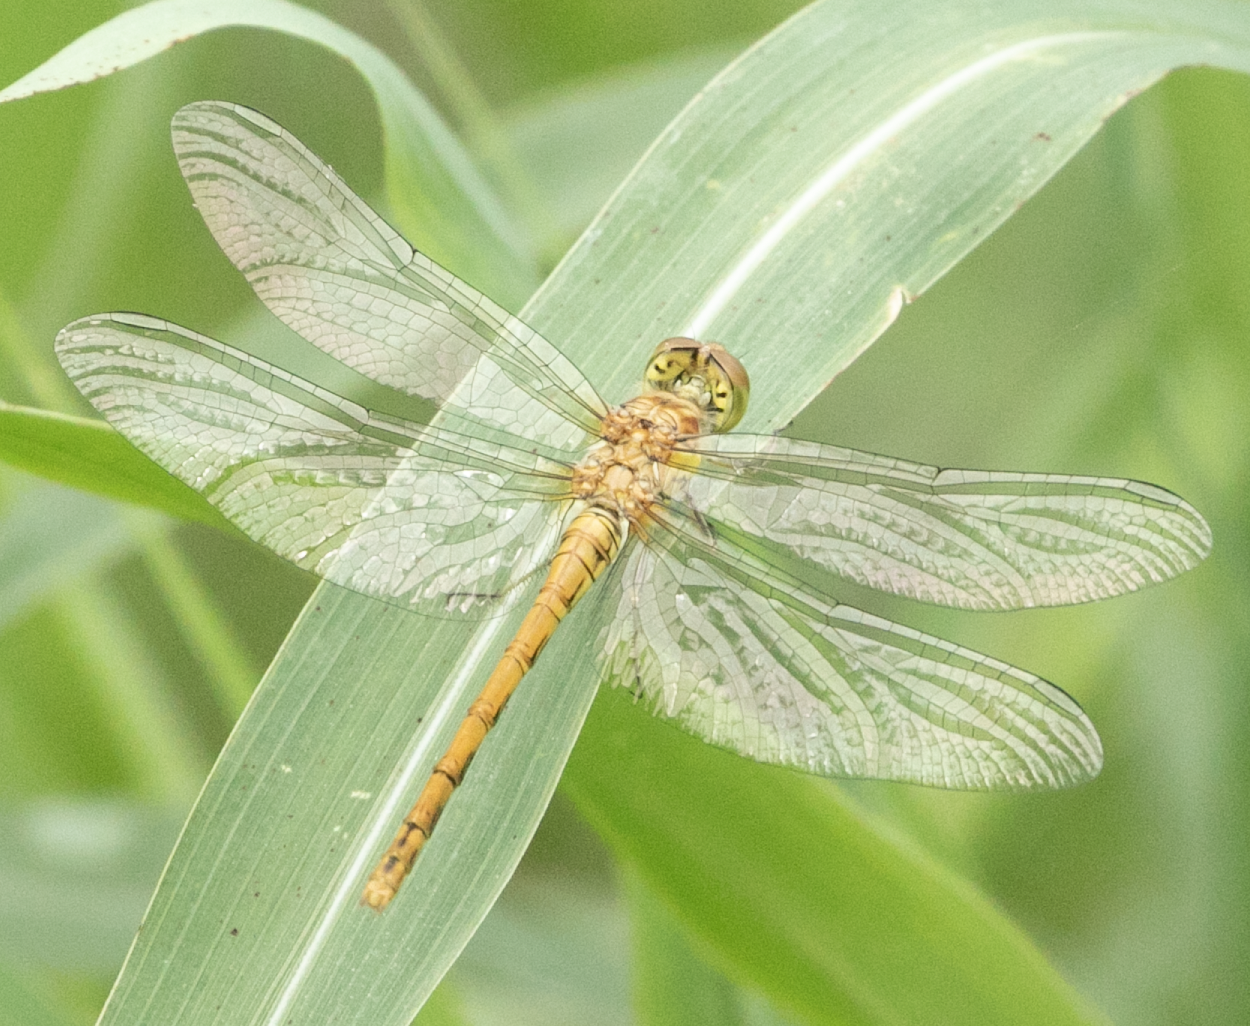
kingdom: Animalia
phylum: Arthropoda
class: Insecta
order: Odonata
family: Libellulidae
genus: Sympetrum
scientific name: Sympetrum striolatum
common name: Common darter
